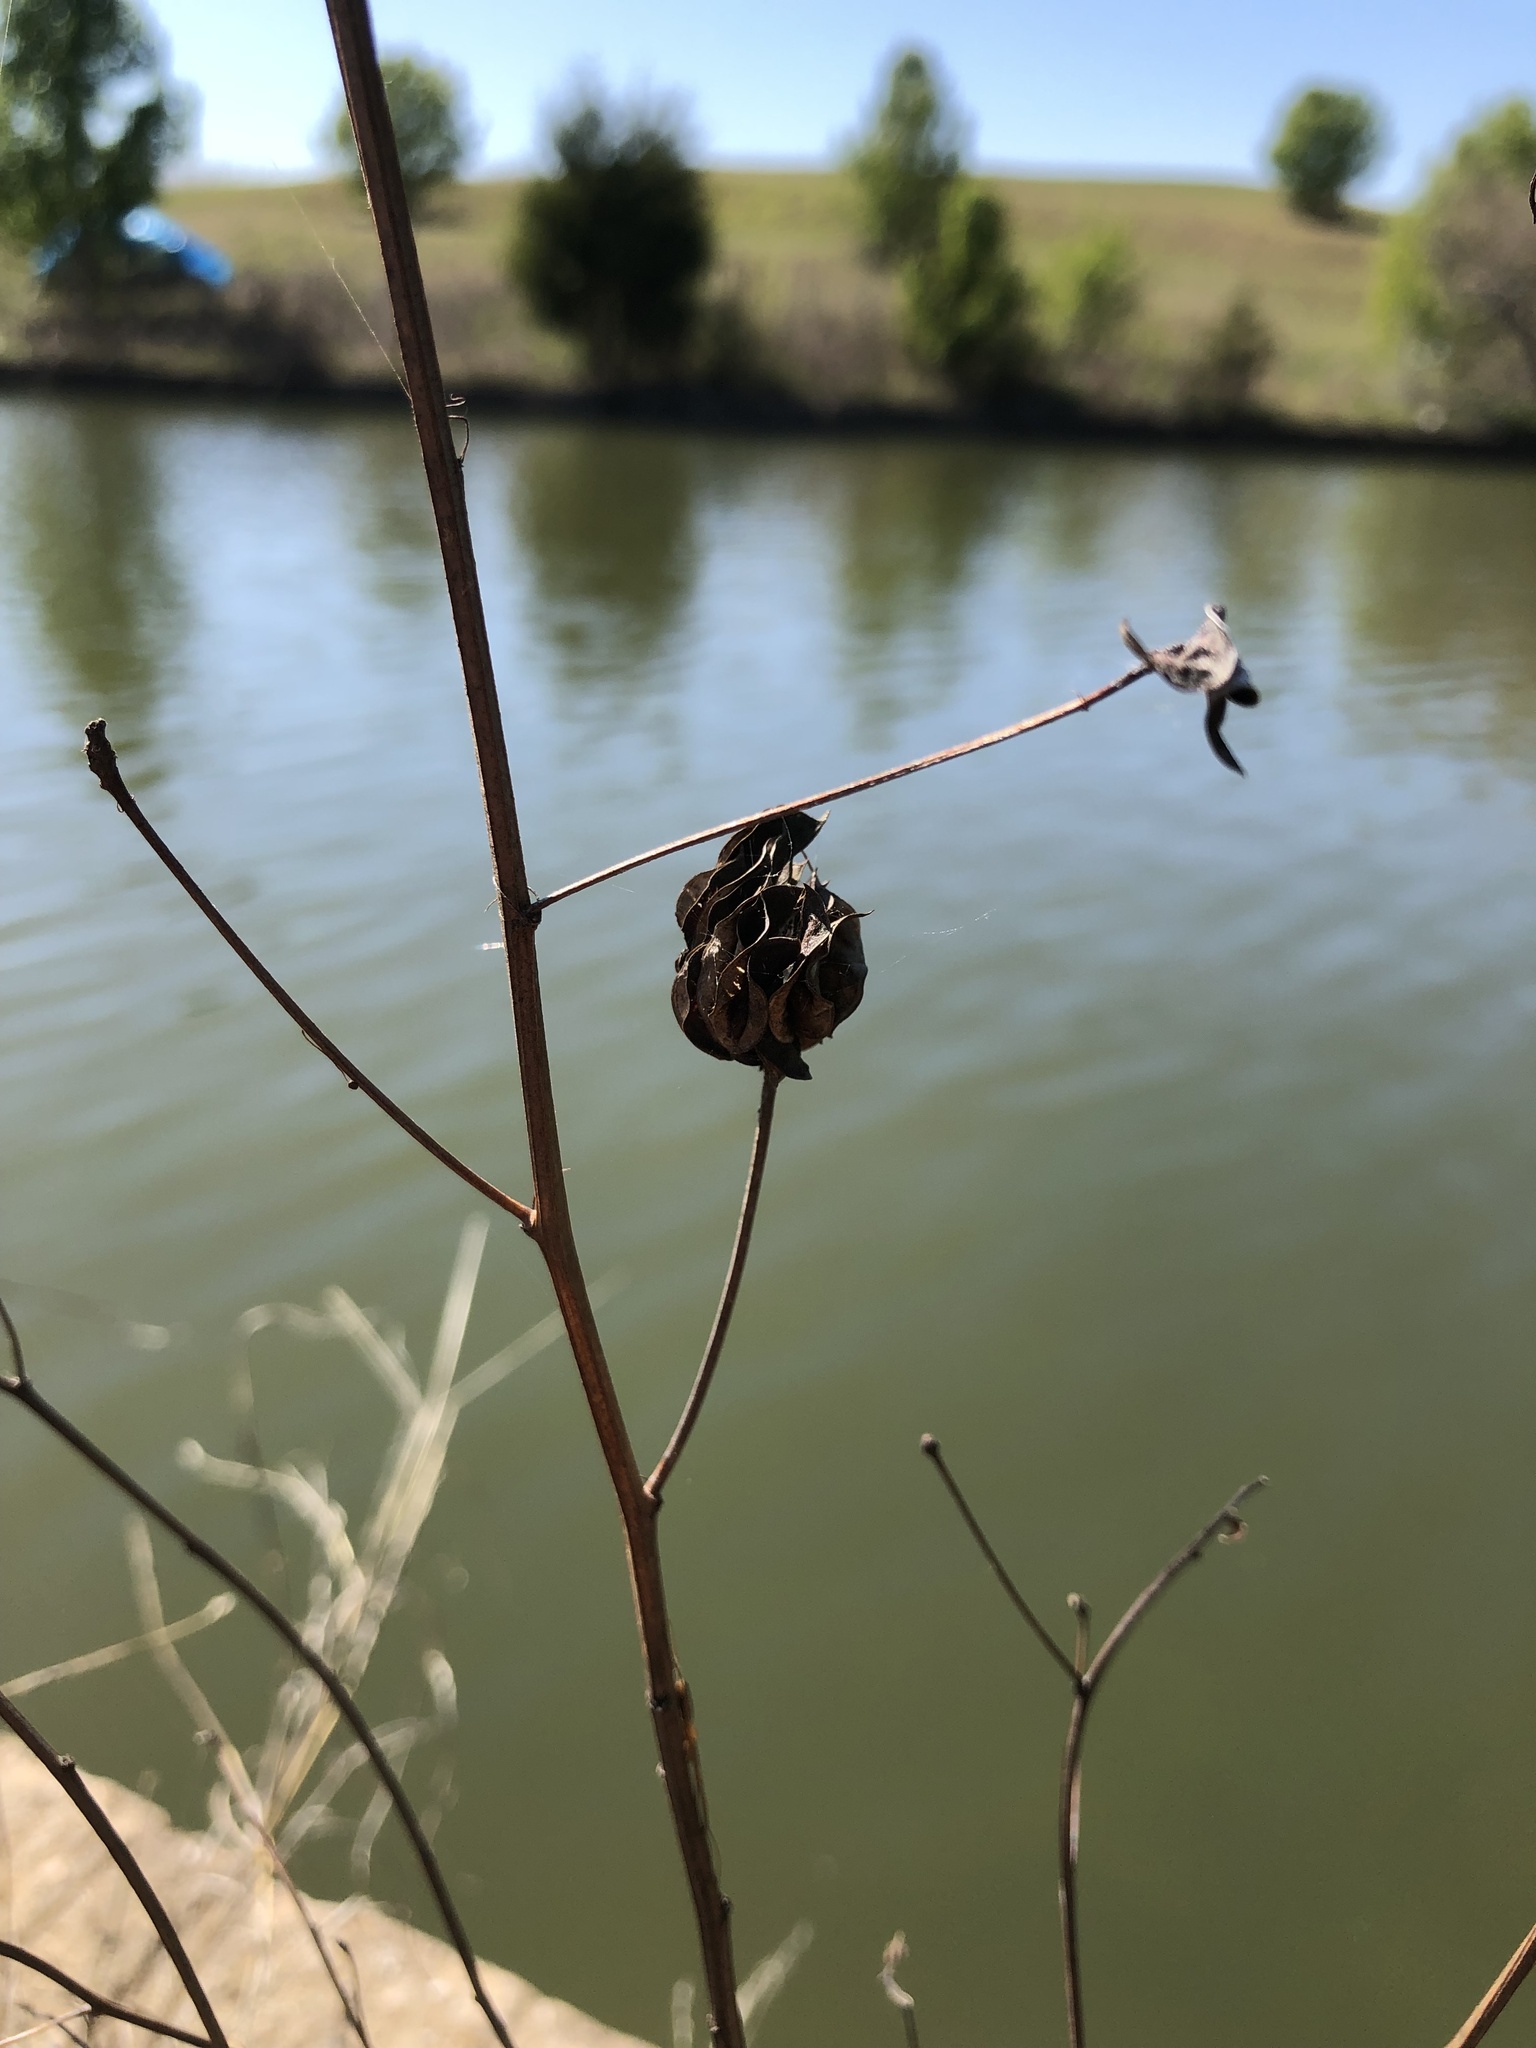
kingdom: Plantae
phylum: Tracheophyta
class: Magnoliopsida
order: Fabales
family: Fabaceae
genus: Desmanthus
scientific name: Desmanthus illinoensis
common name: Illinois bundle-flower
